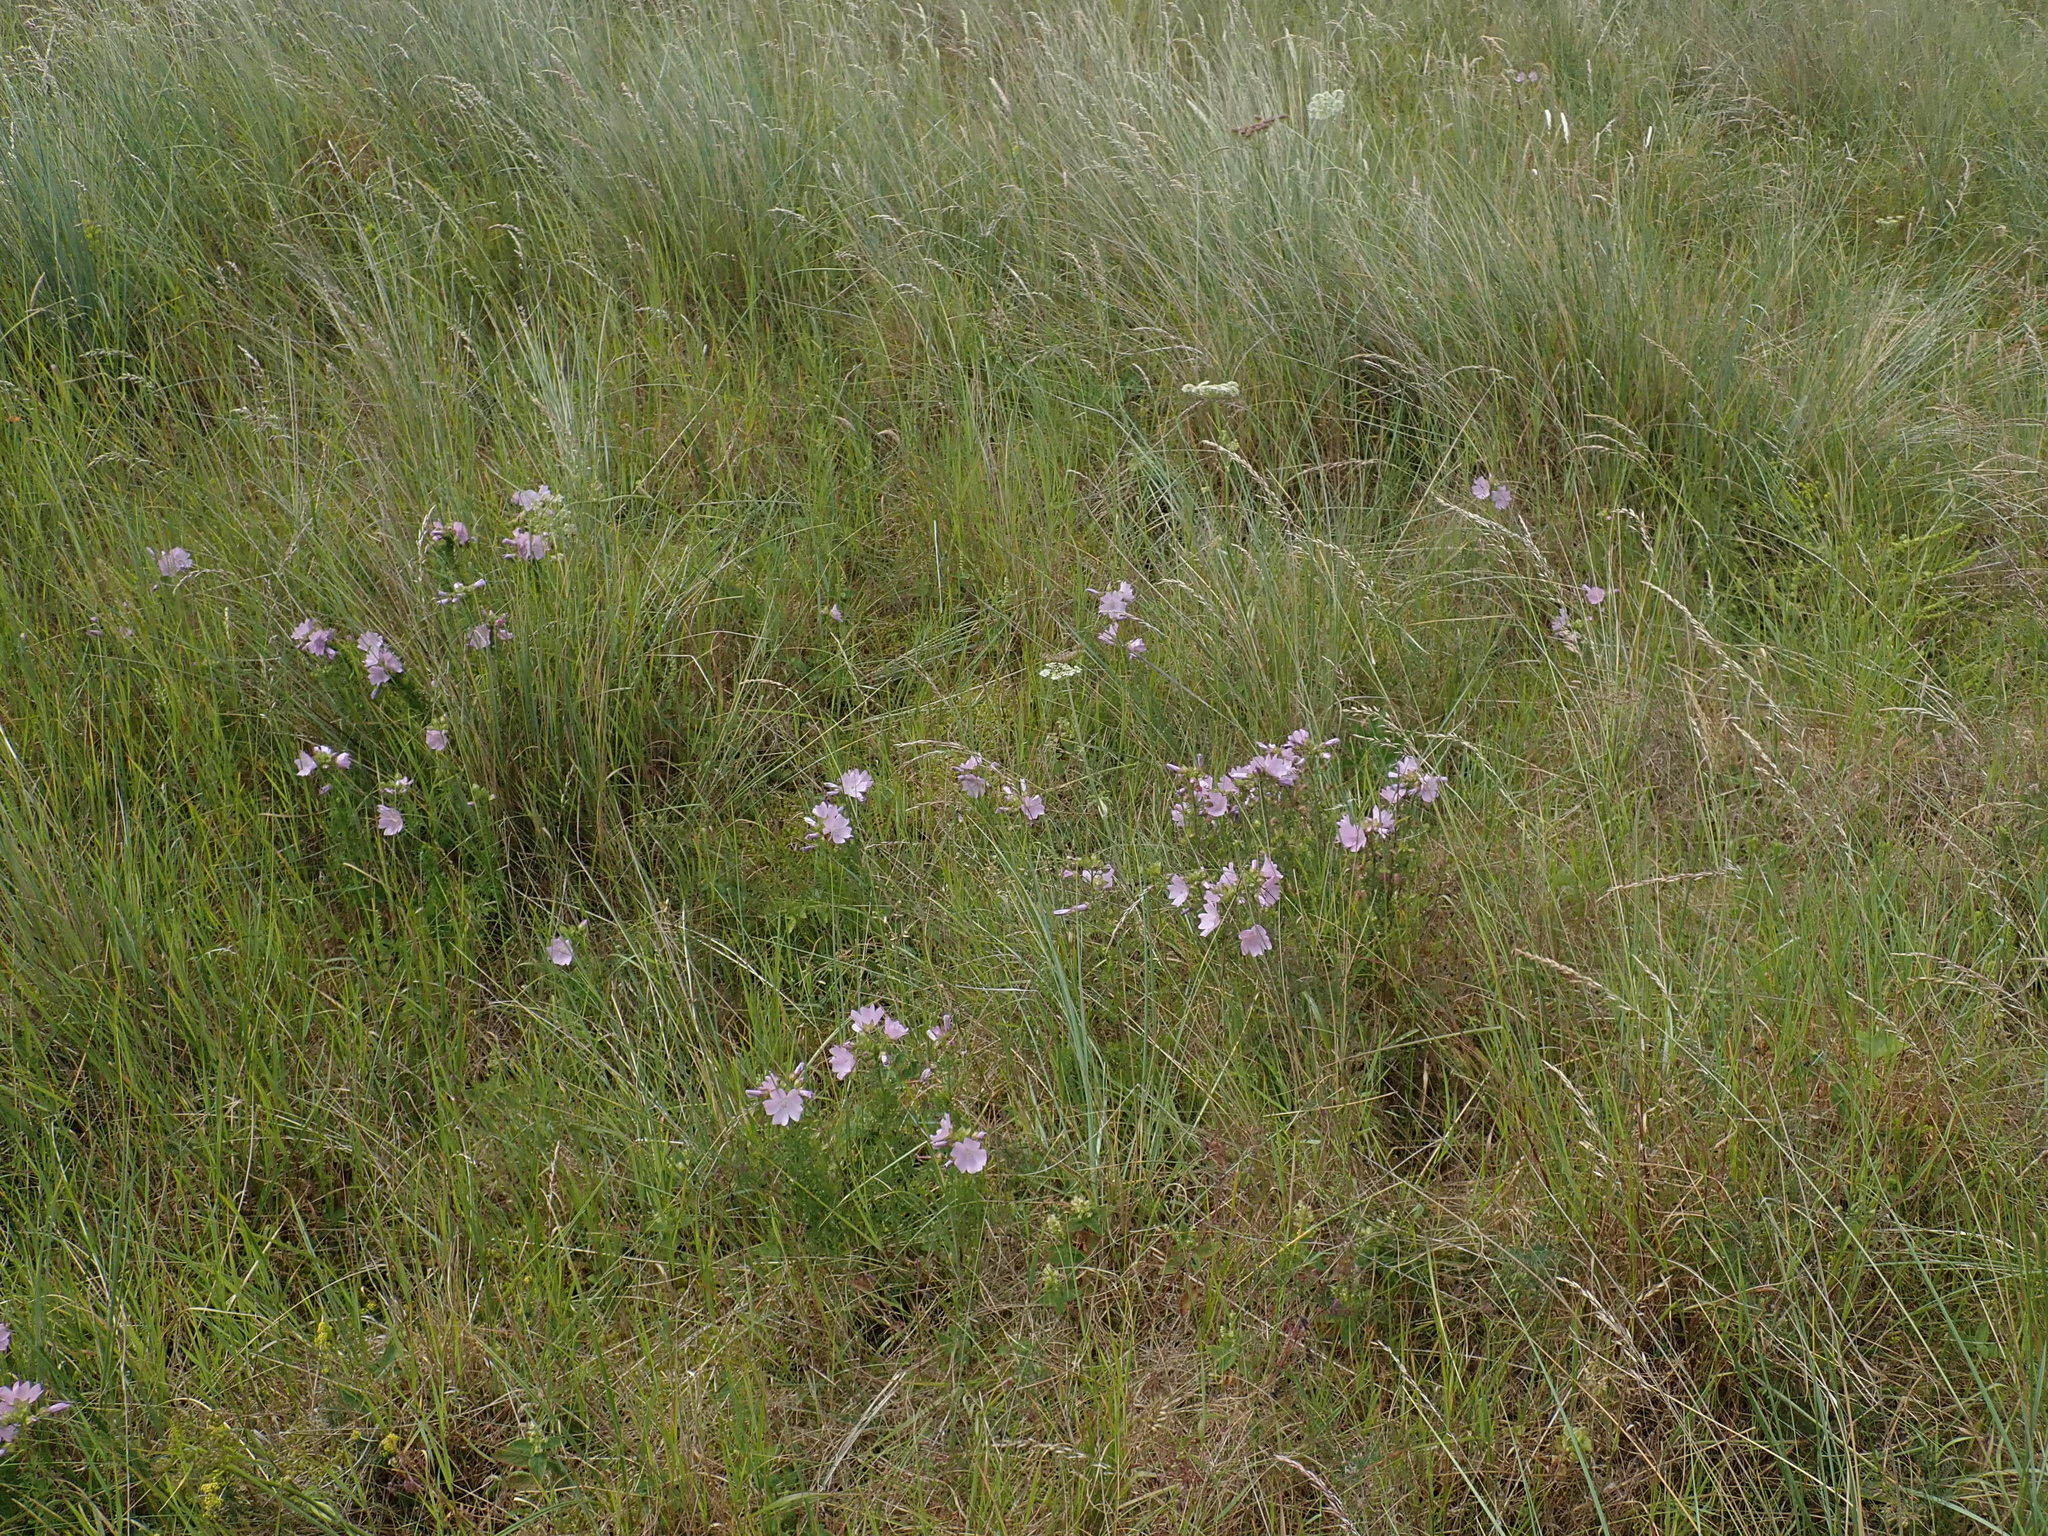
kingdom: Plantae
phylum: Tracheophyta
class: Magnoliopsida
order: Malvales
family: Malvaceae
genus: Malva
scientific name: Malva moschata
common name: Musk mallow
